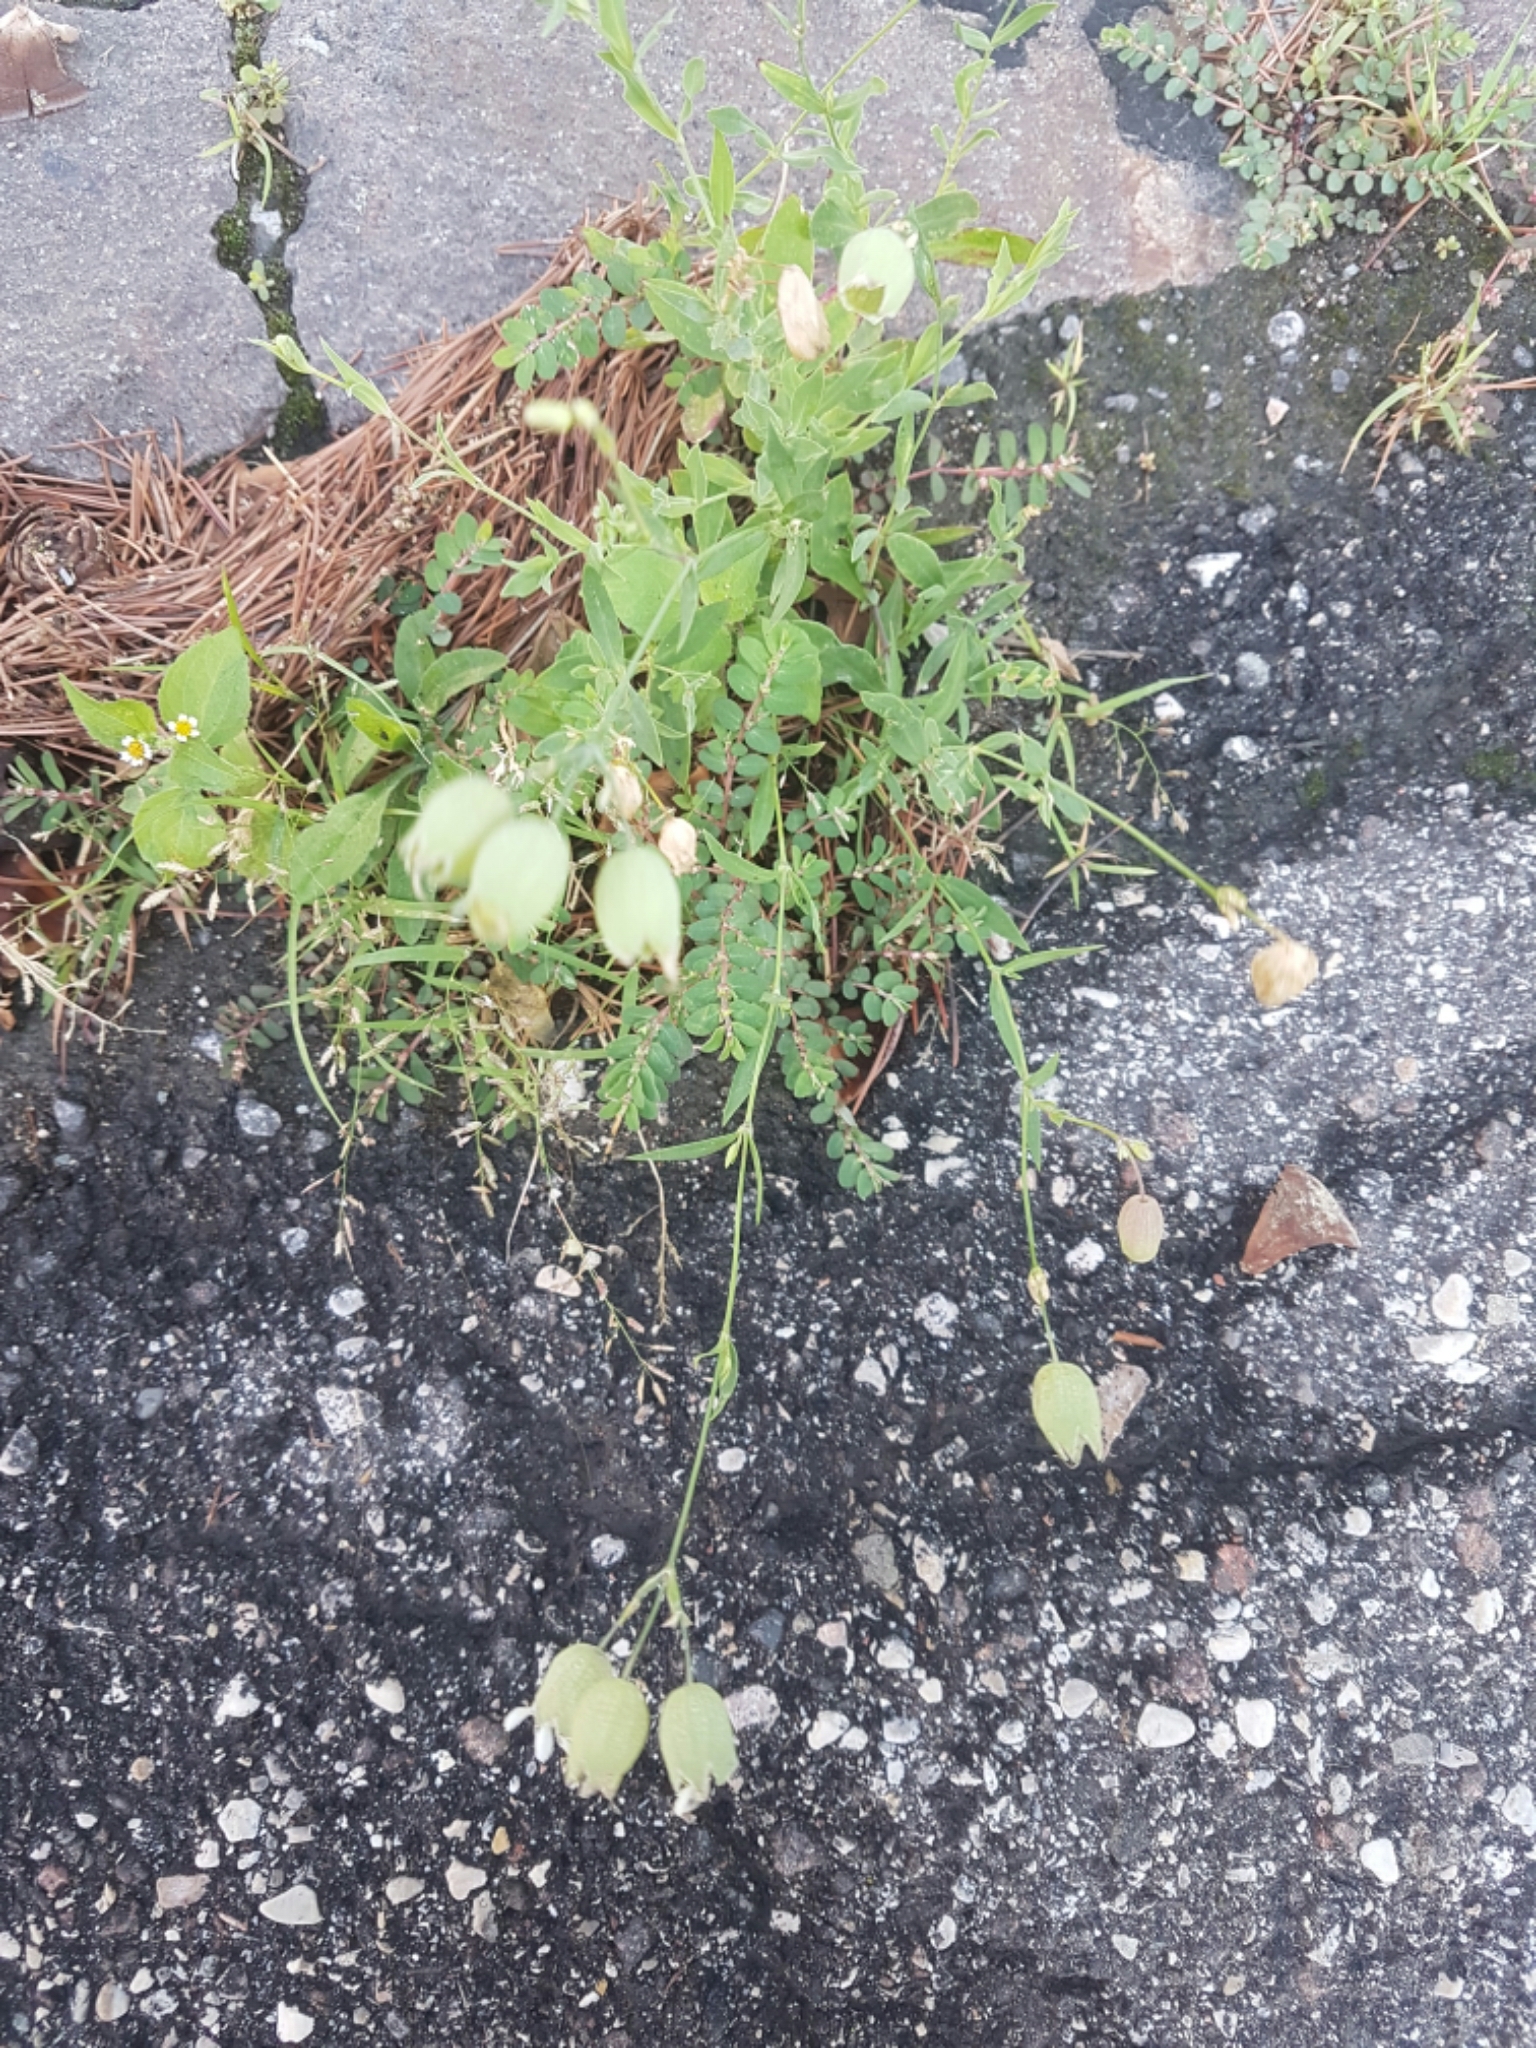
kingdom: Plantae
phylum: Tracheophyta
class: Magnoliopsida
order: Caryophyllales
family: Caryophyllaceae
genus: Silene
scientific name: Silene vulgaris
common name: Bladder campion
